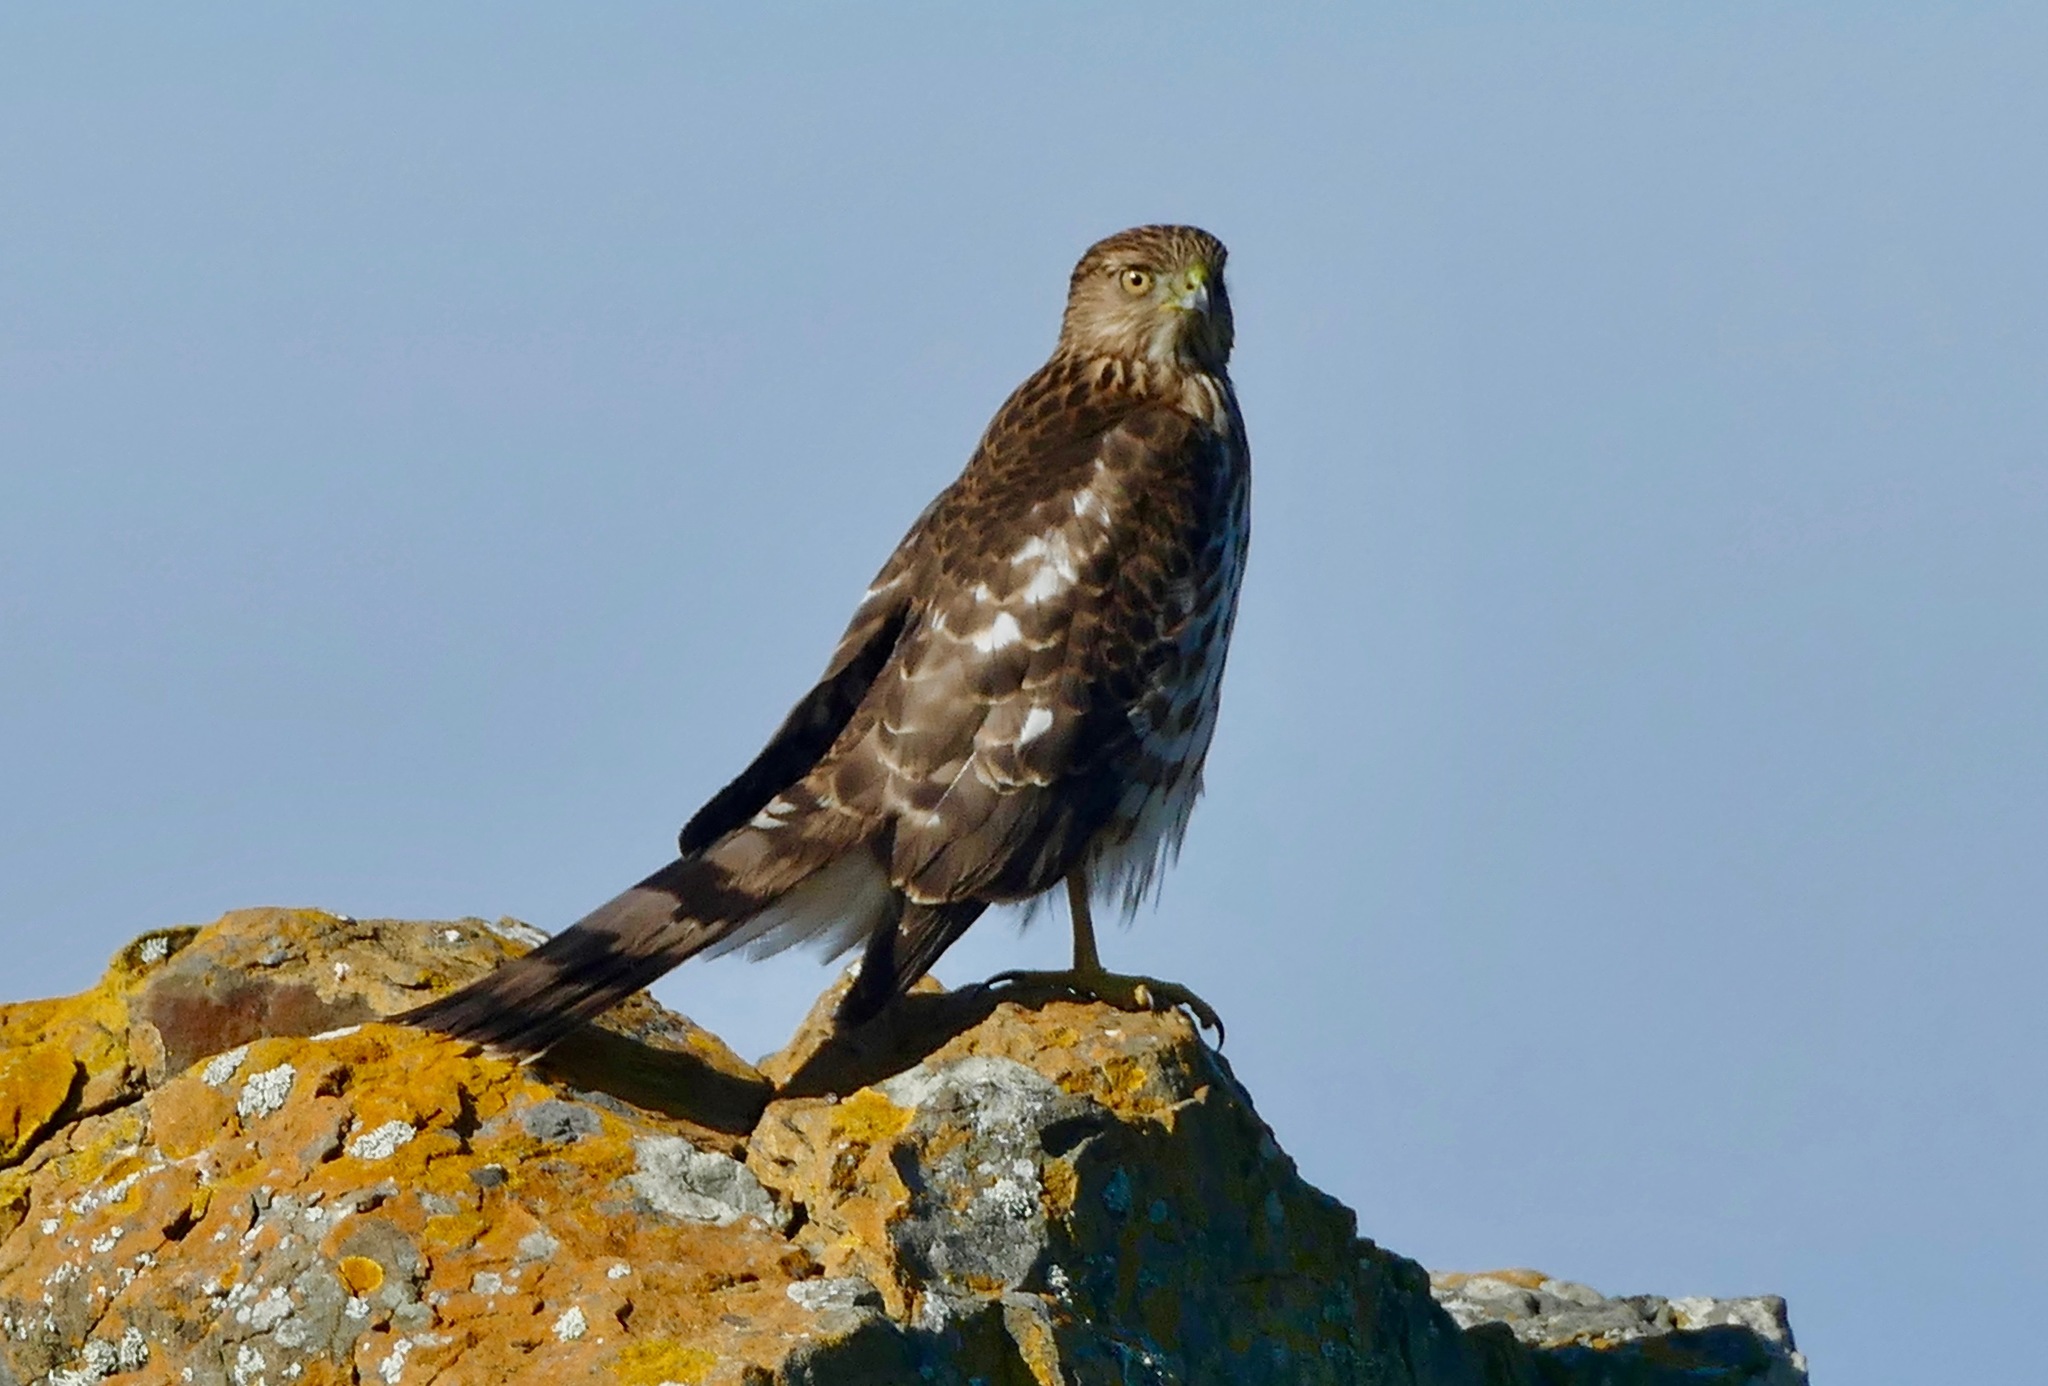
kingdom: Animalia
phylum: Chordata
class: Aves
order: Accipitriformes
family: Accipitridae
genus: Accipiter
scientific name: Accipiter cooperii
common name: Cooper's hawk
